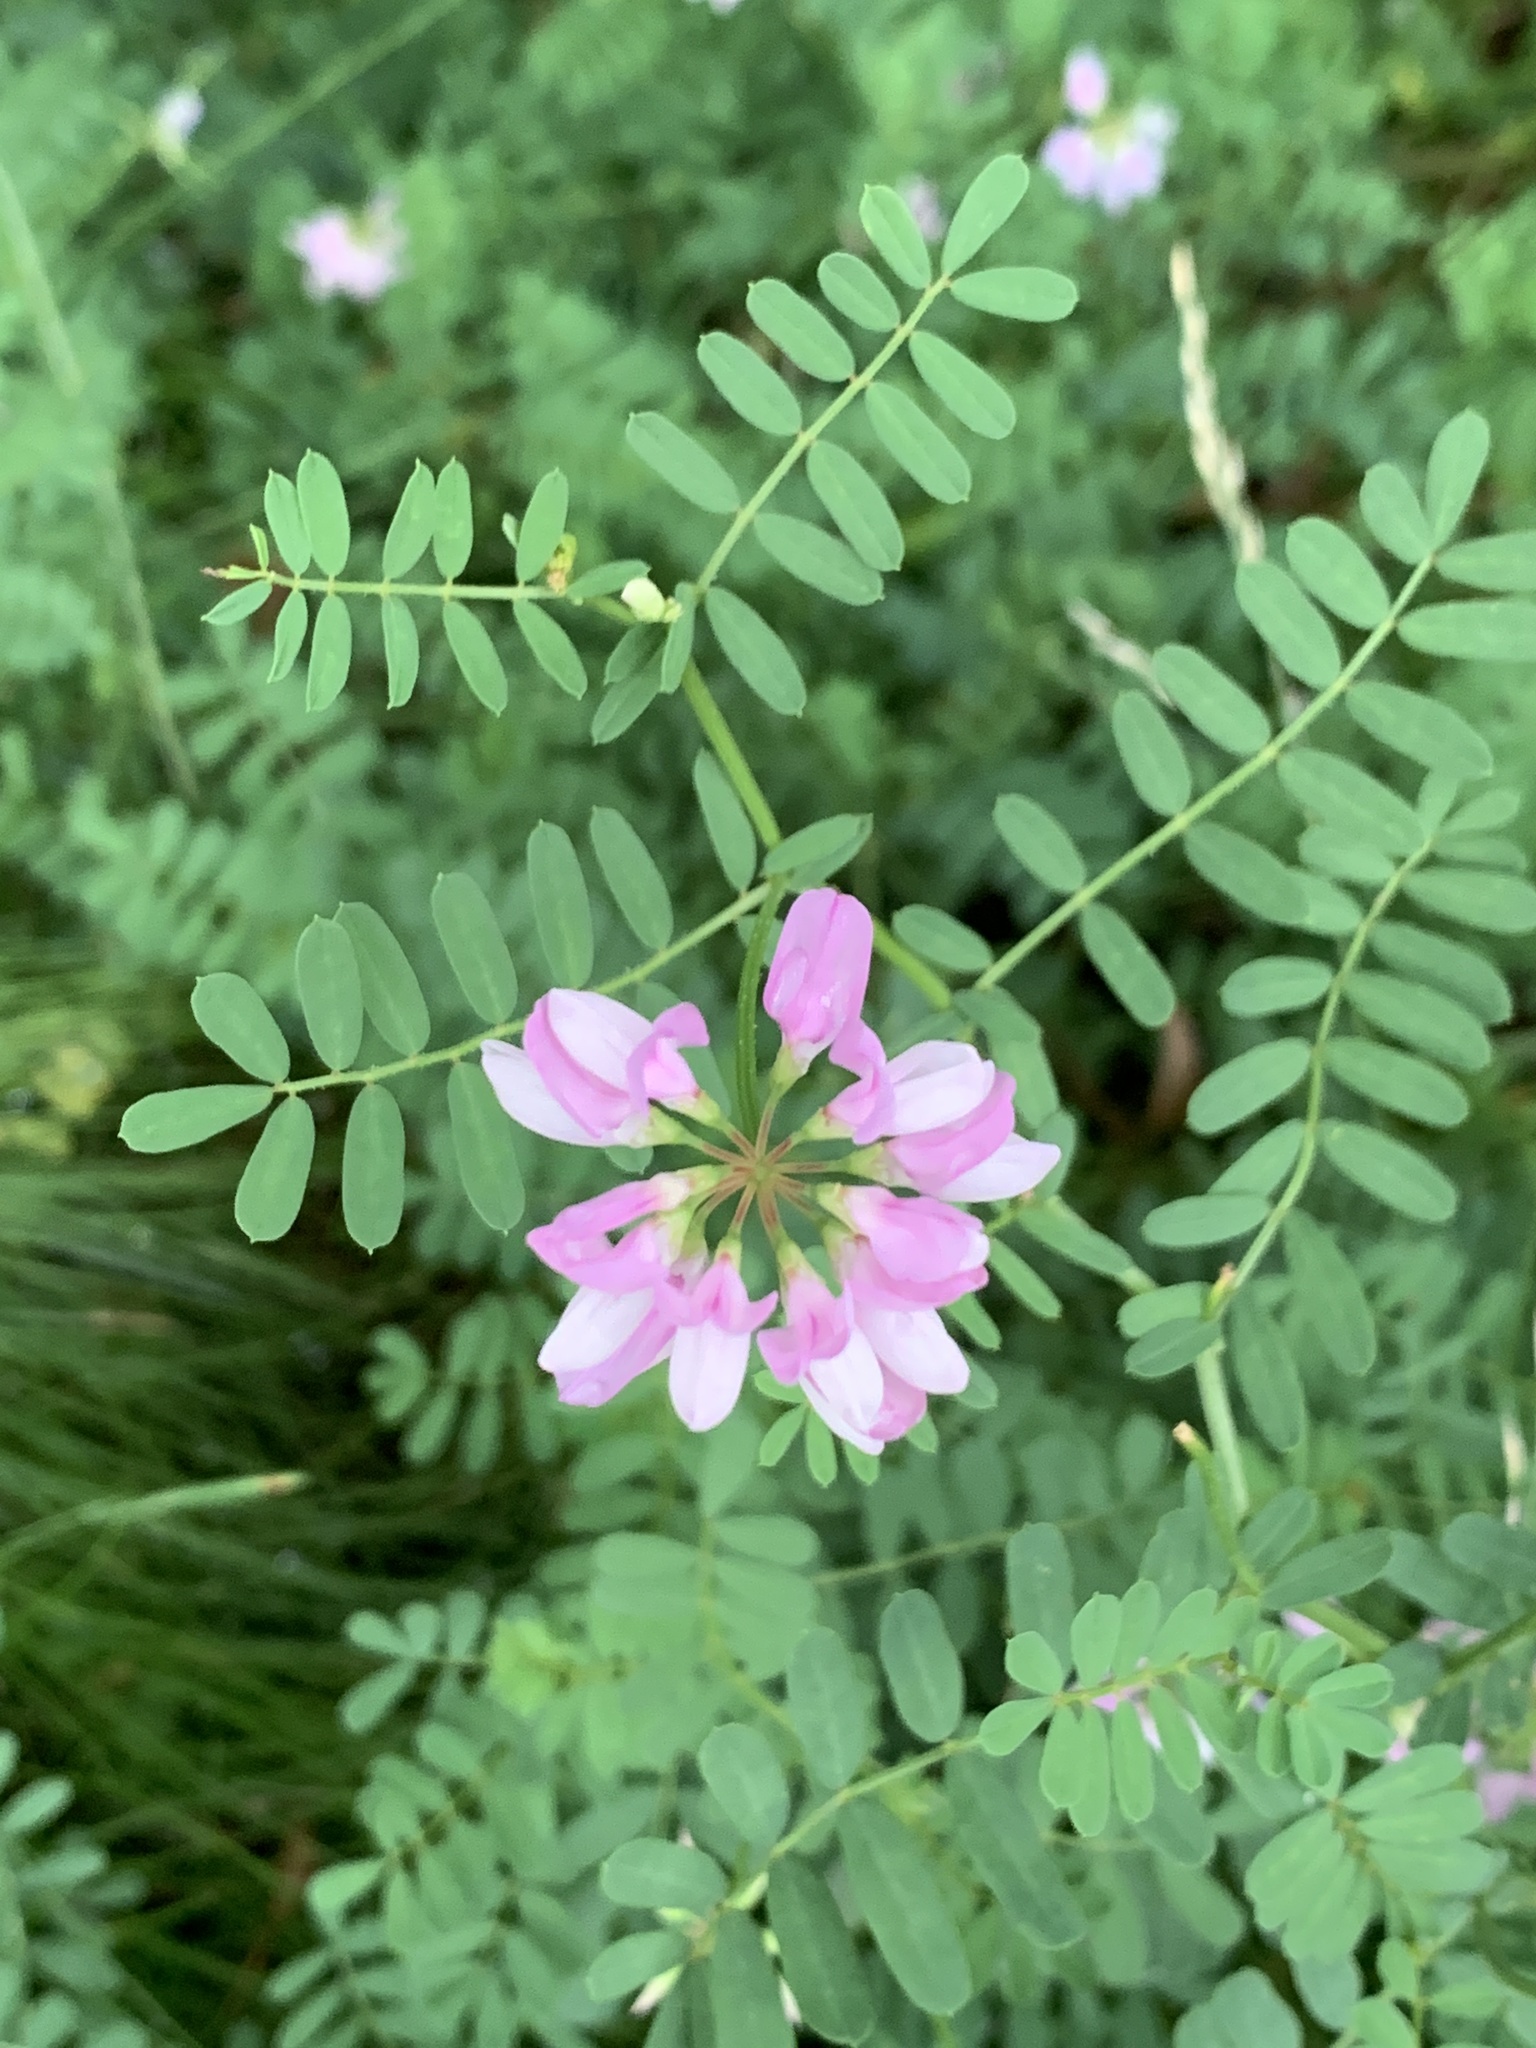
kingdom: Plantae
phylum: Tracheophyta
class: Magnoliopsida
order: Fabales
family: Fabaceae
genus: Coronilla
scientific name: Coronilla varia
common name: Crownvetch
